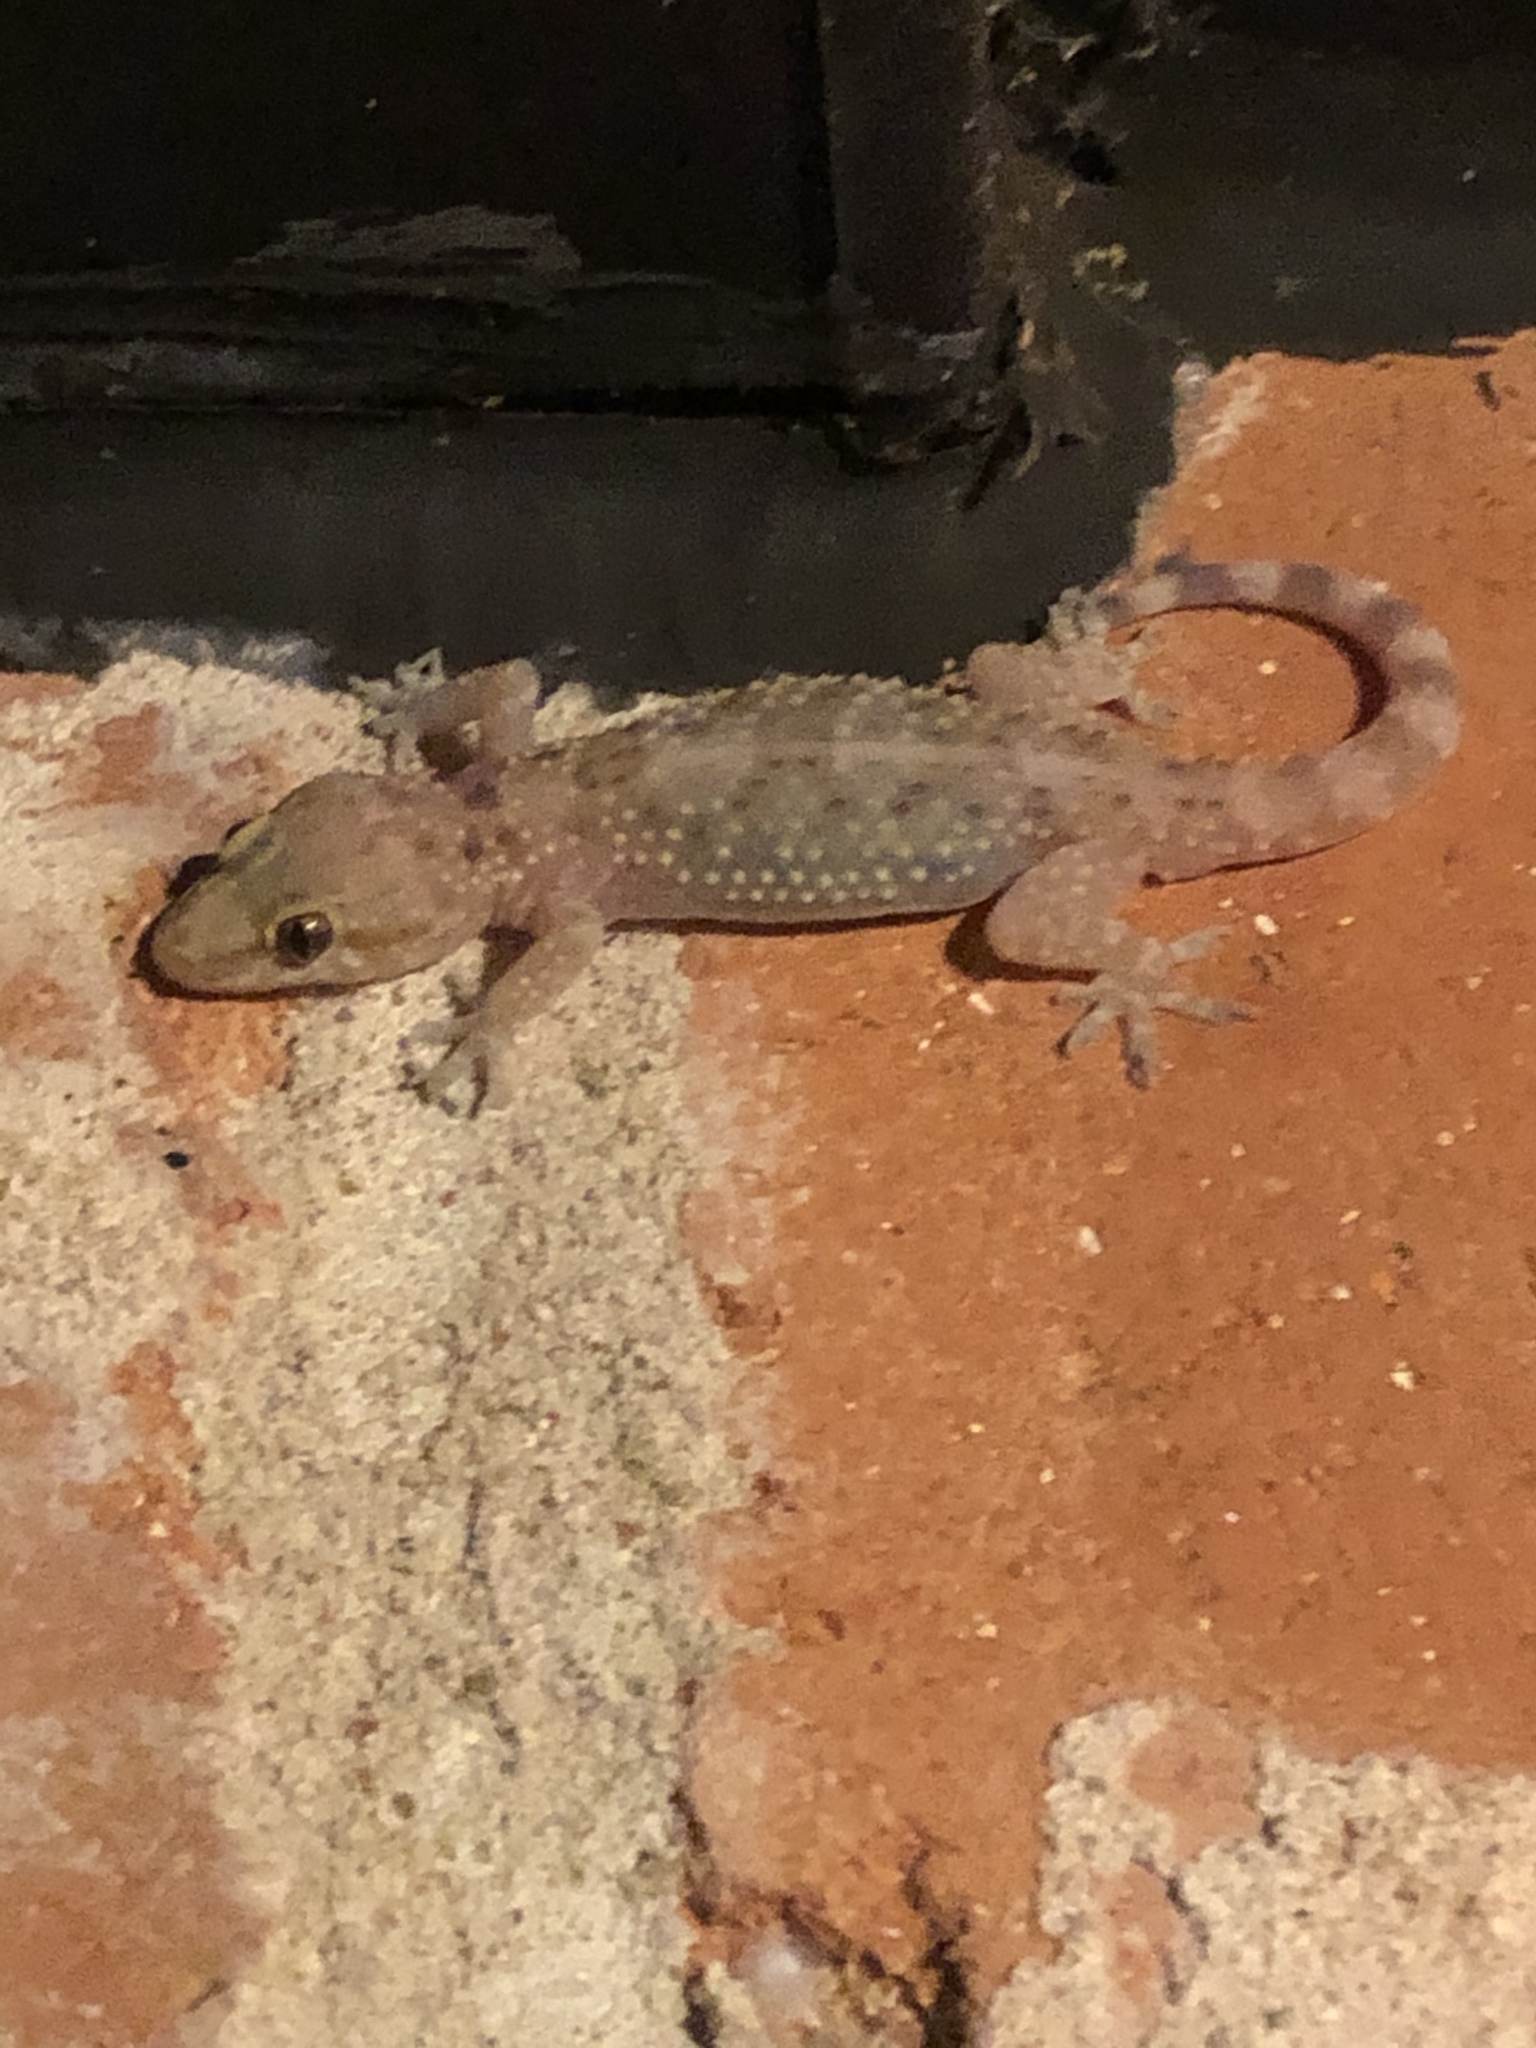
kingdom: Animalia
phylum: Chordata
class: Squamata
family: Gekkonidae
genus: Hemidactylus
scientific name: Hemidactylus turcicus
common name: Turkish gecko
